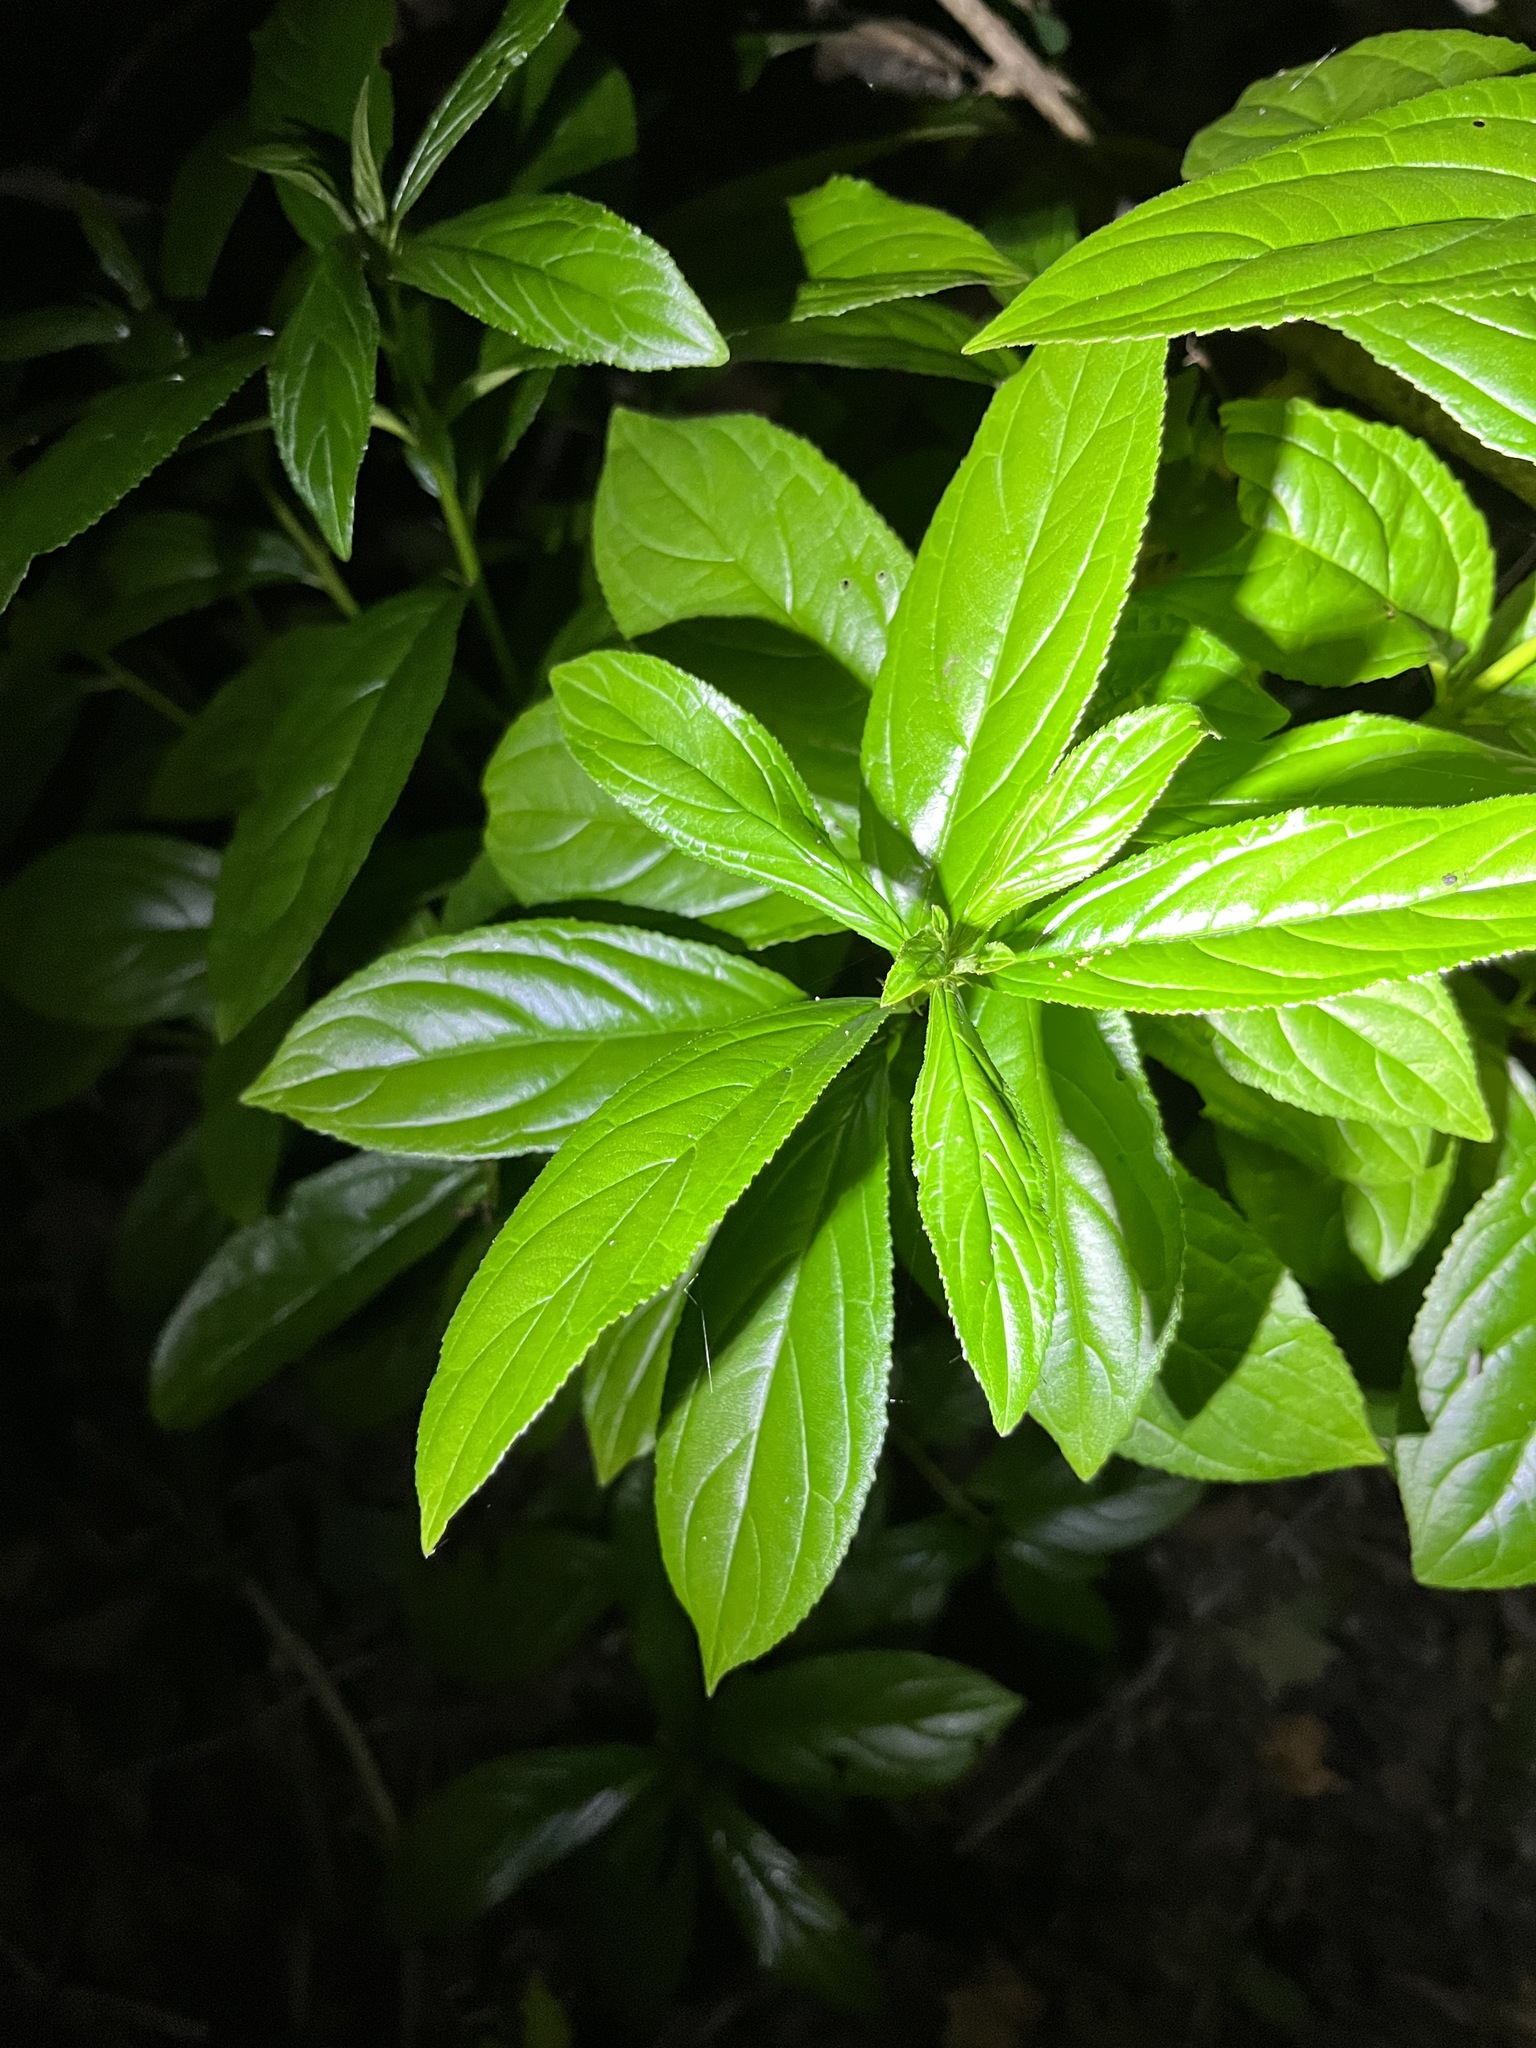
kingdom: Plantae
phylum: Tracheophyta
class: Magnoliopsida
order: Rosales
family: Rhamnaceae
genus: Rhamnus
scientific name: Rhamnus virgata
